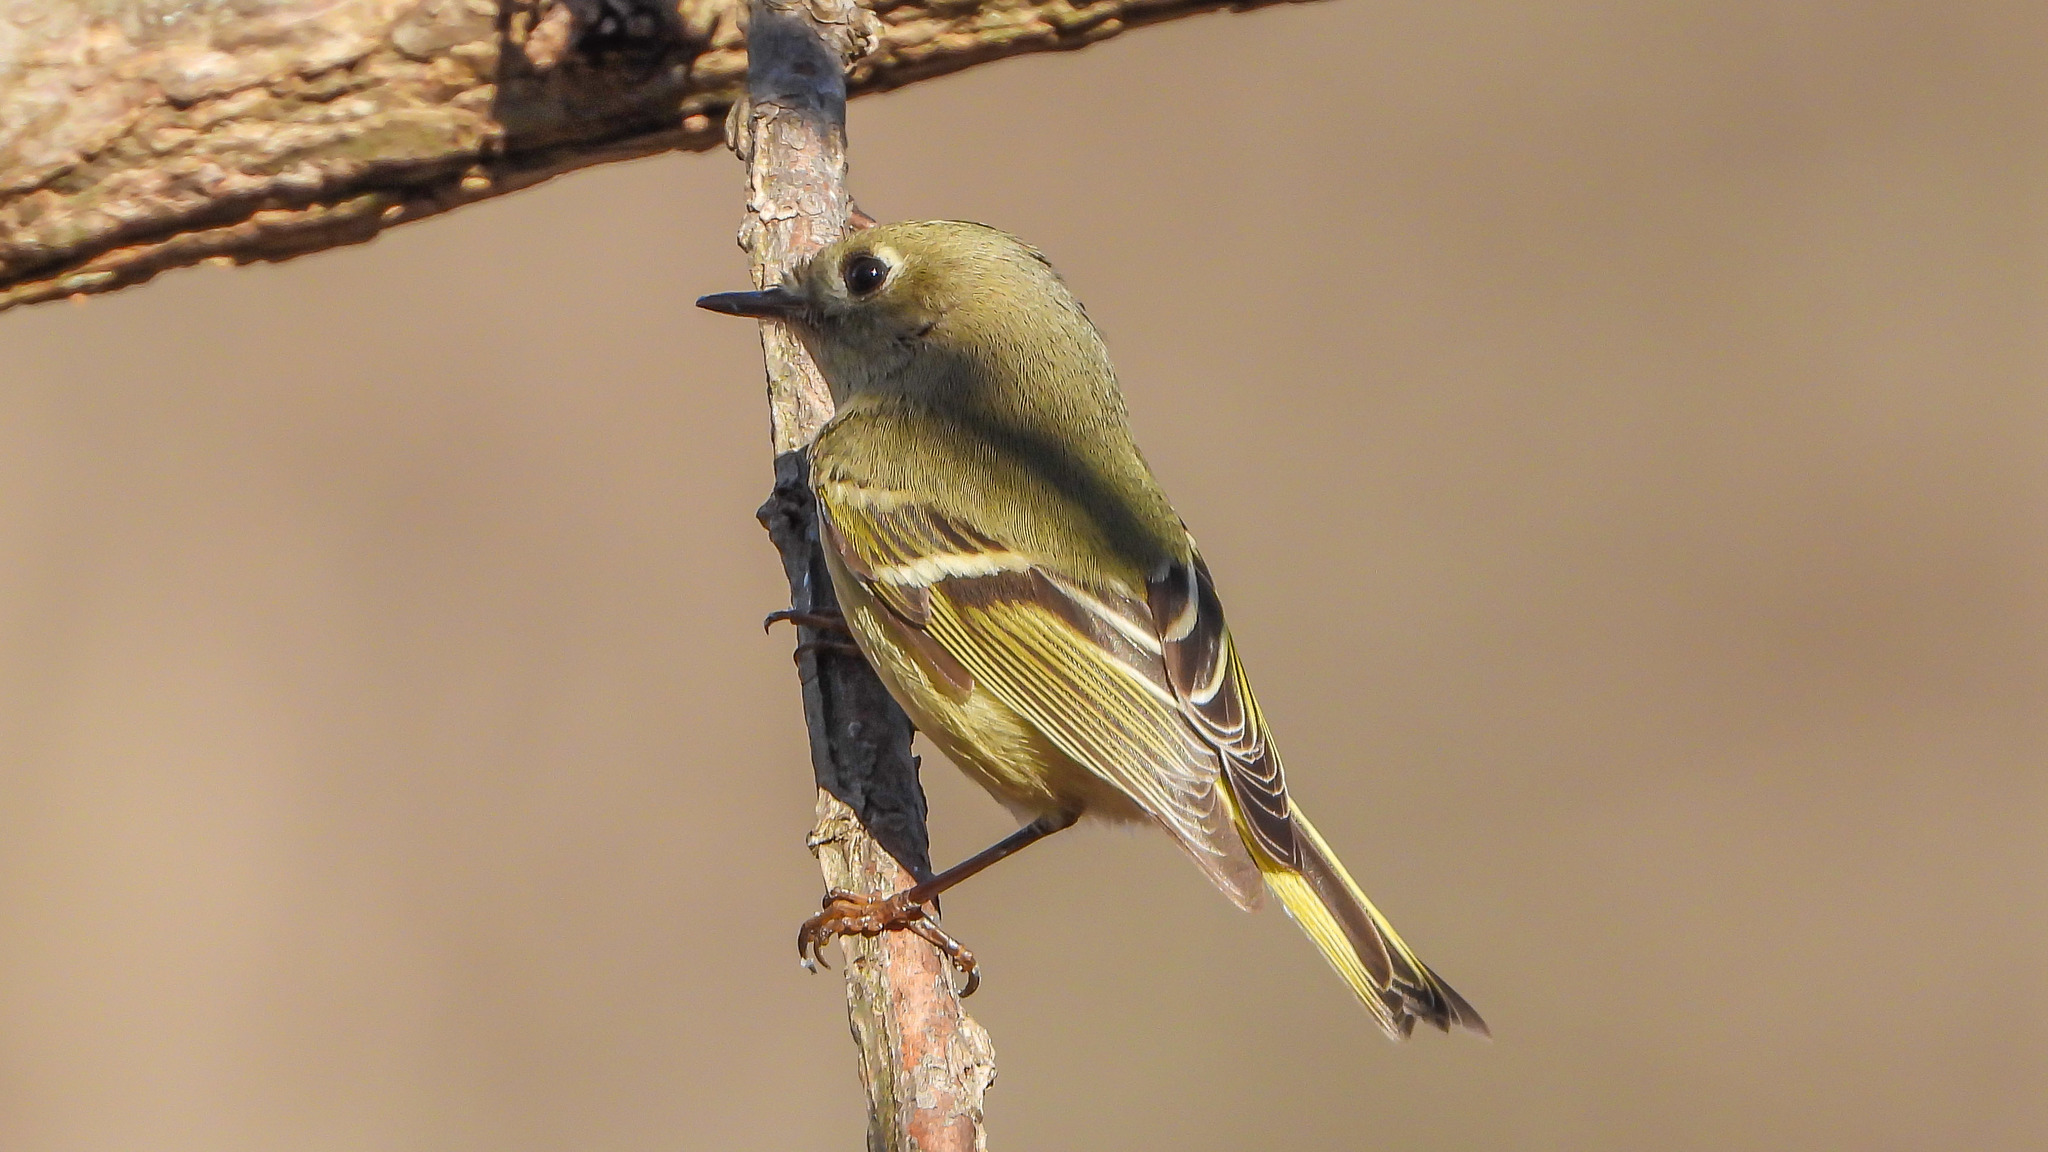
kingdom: Animalia
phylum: Chordata
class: Aves
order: Passeriformes
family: Regulidae
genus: Regulus
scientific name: Regulus calendula
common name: Ruby-crowned kinglet
